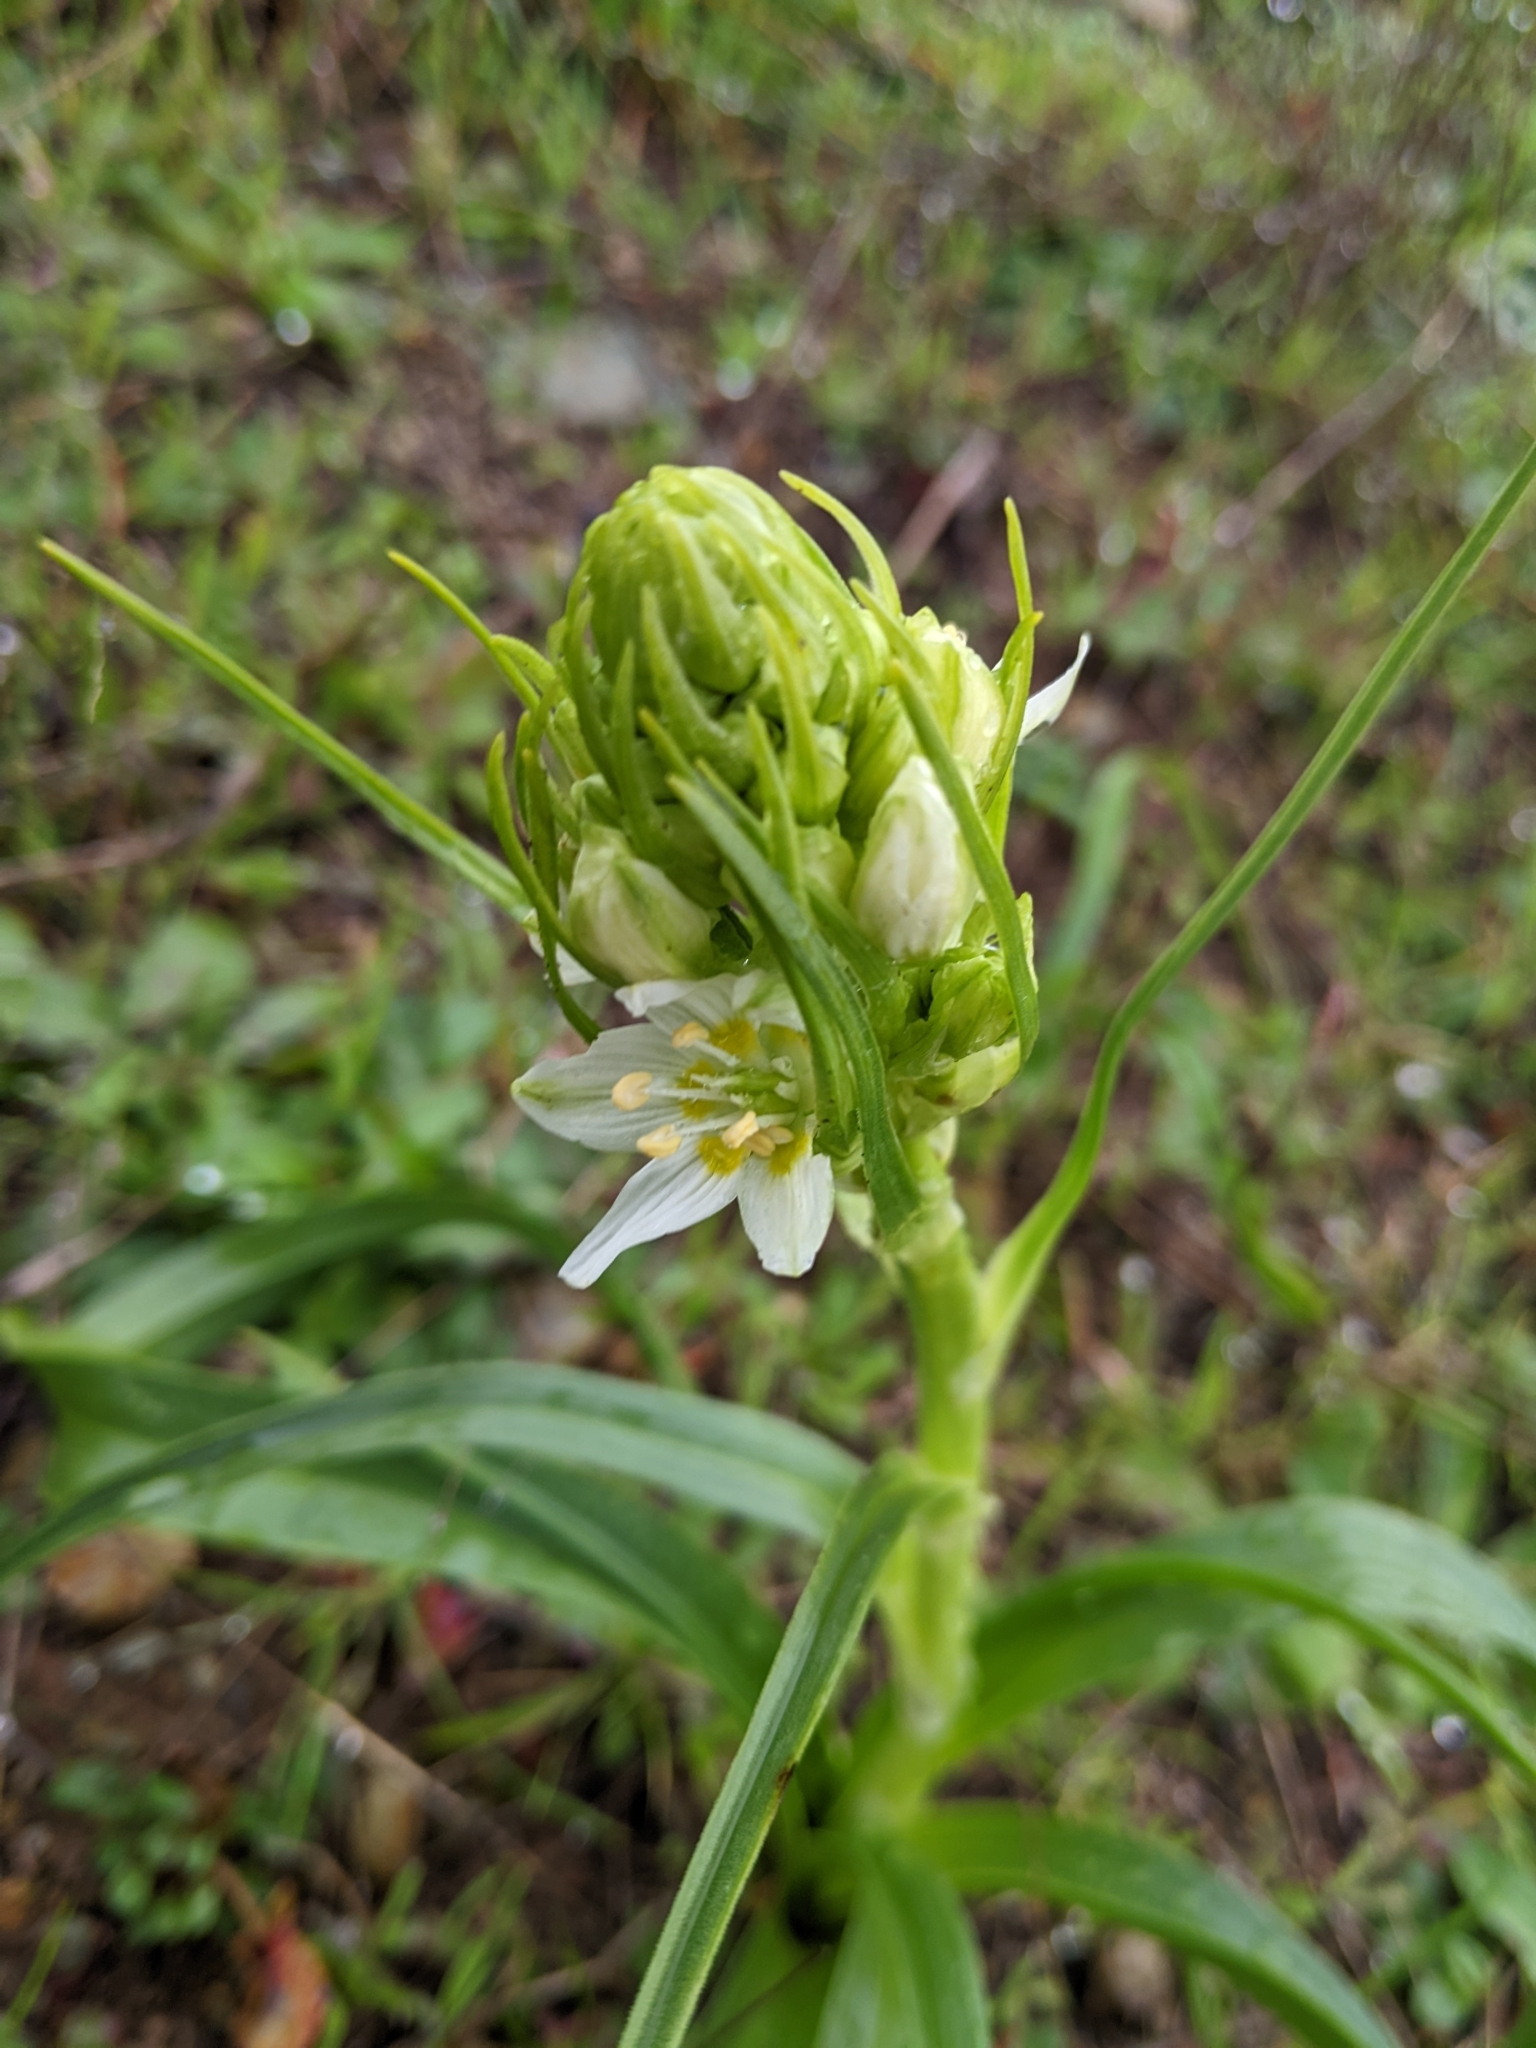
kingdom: Plantae
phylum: Tracheophyta
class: Liliopsida
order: Liliales
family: Melanthiaceae
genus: Toxicoscordion
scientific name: Toxicoscordion fremontii
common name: Fremont's death camas
